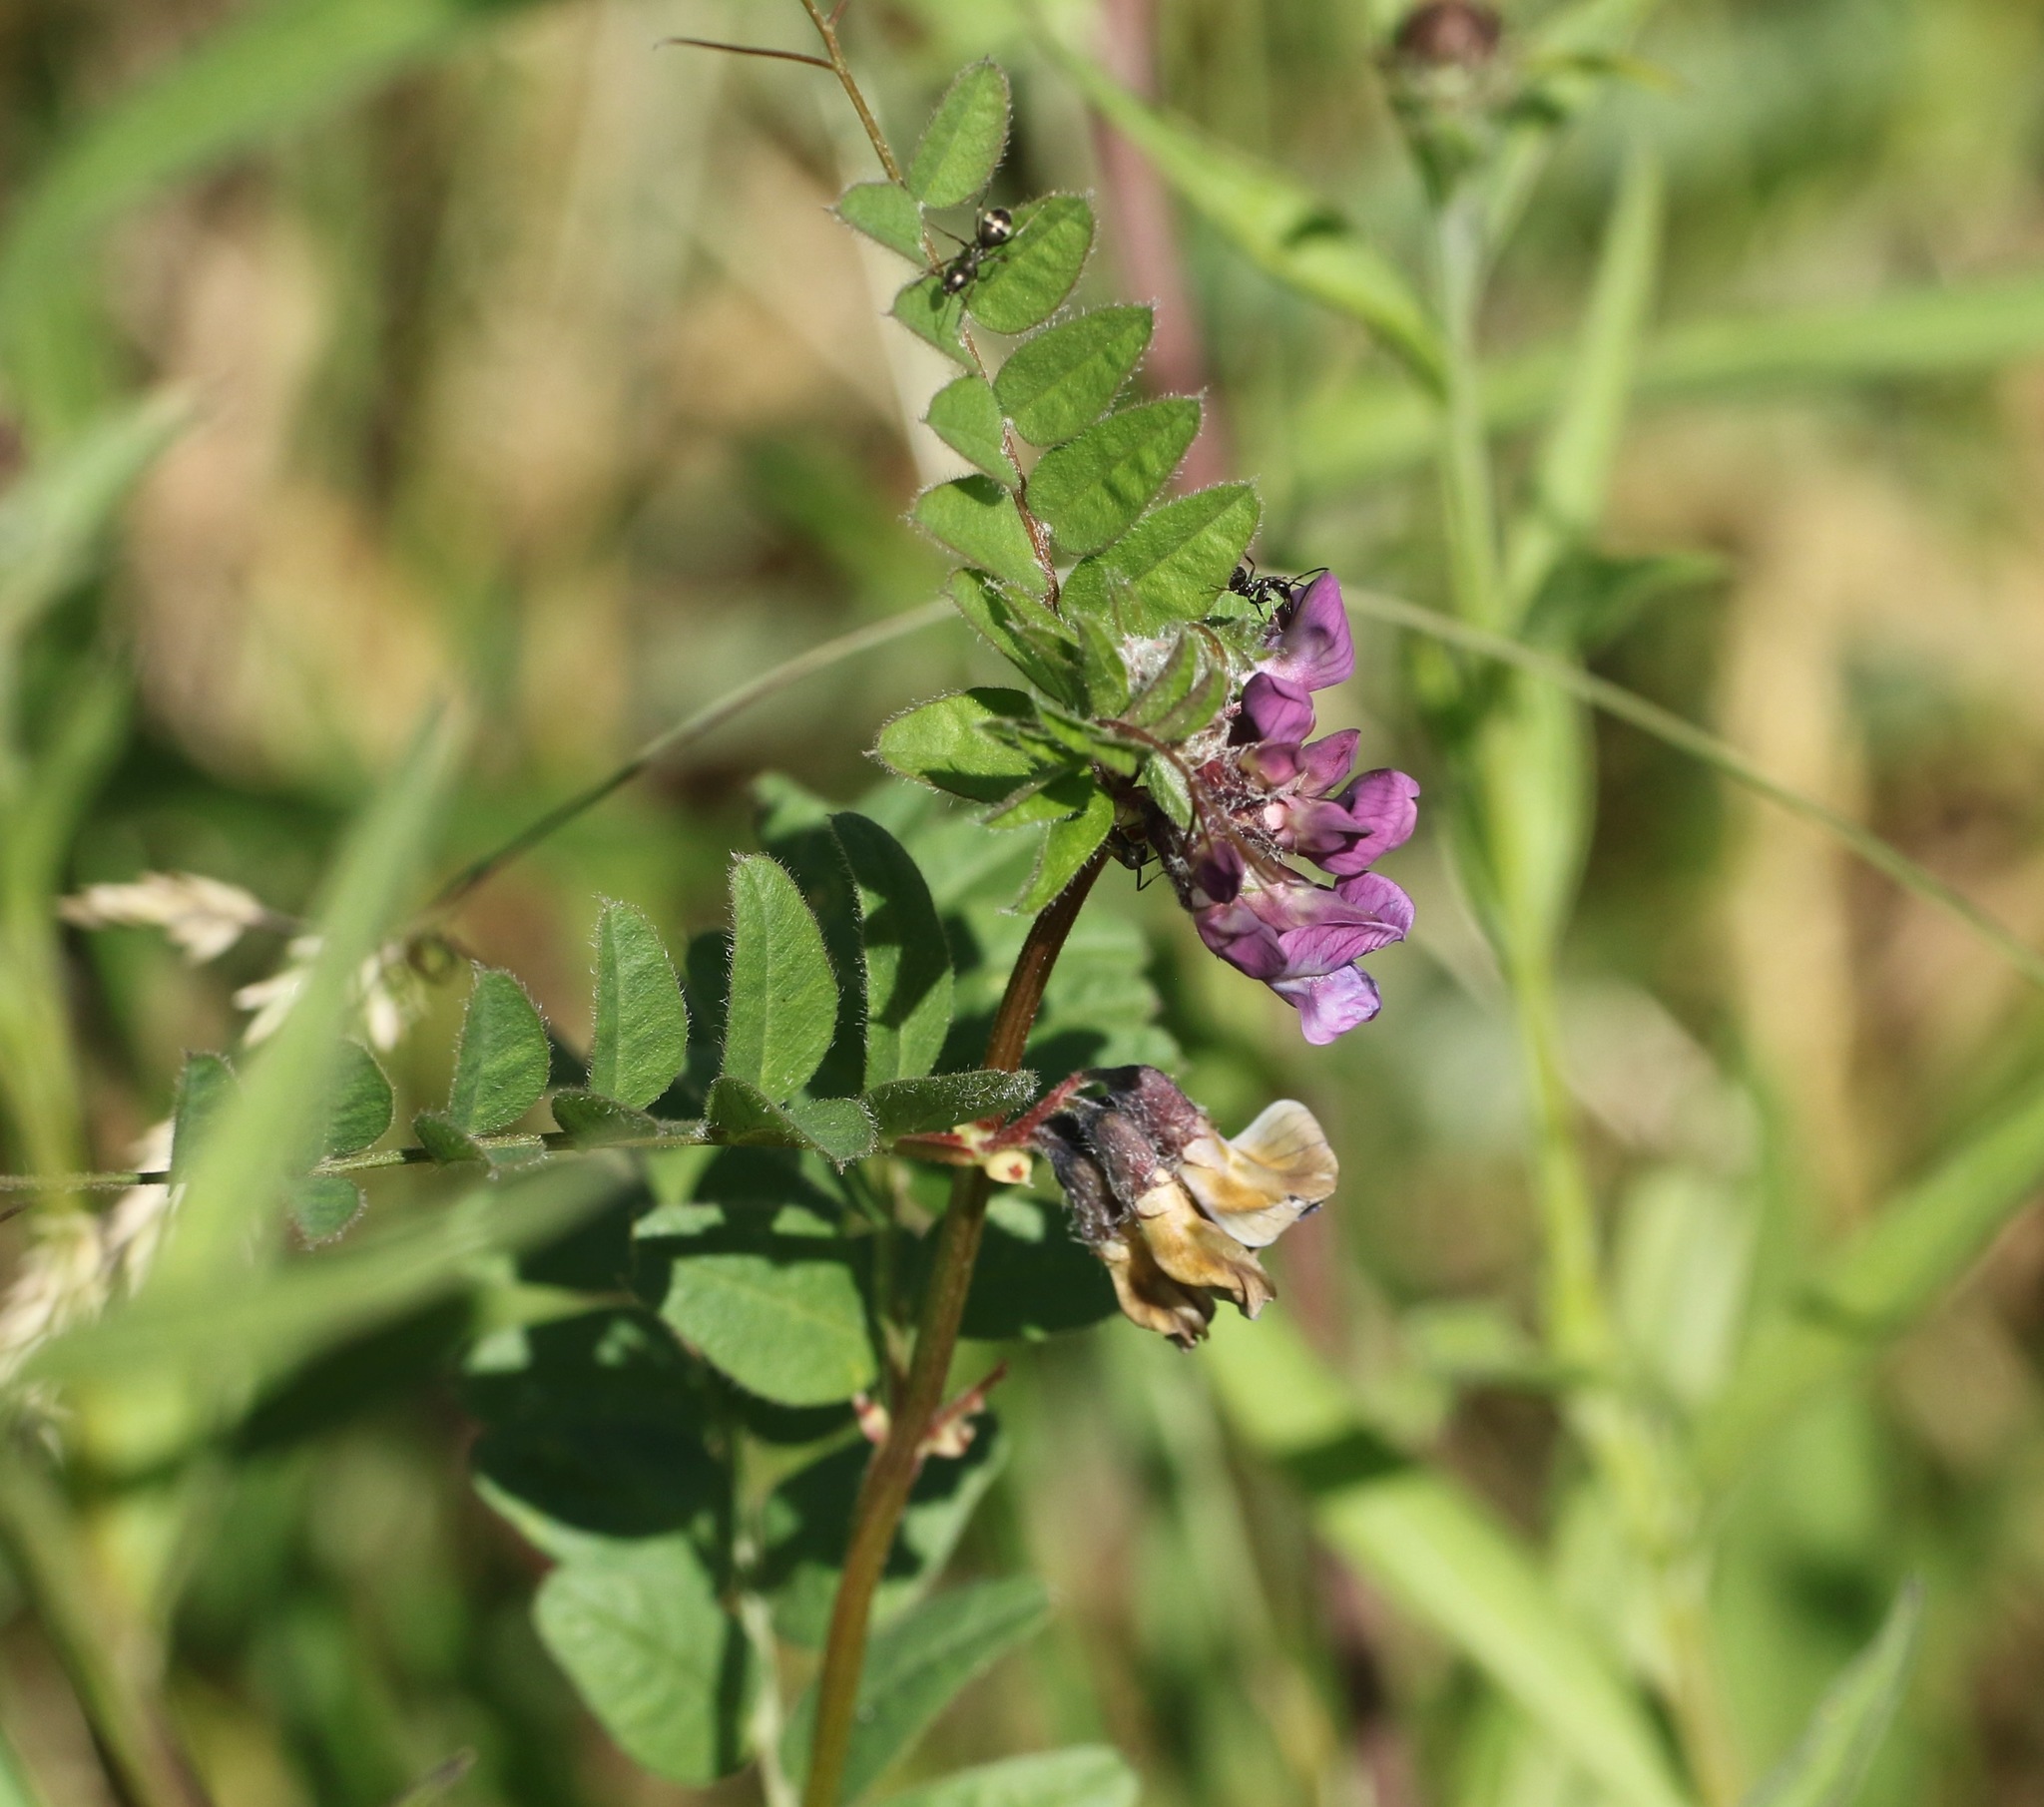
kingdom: Plantae
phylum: Tracheophyta
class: Magnoliopsida
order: Fabales
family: Fabaceae
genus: Vicia
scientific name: Vicia sepium
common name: Bush vetch
